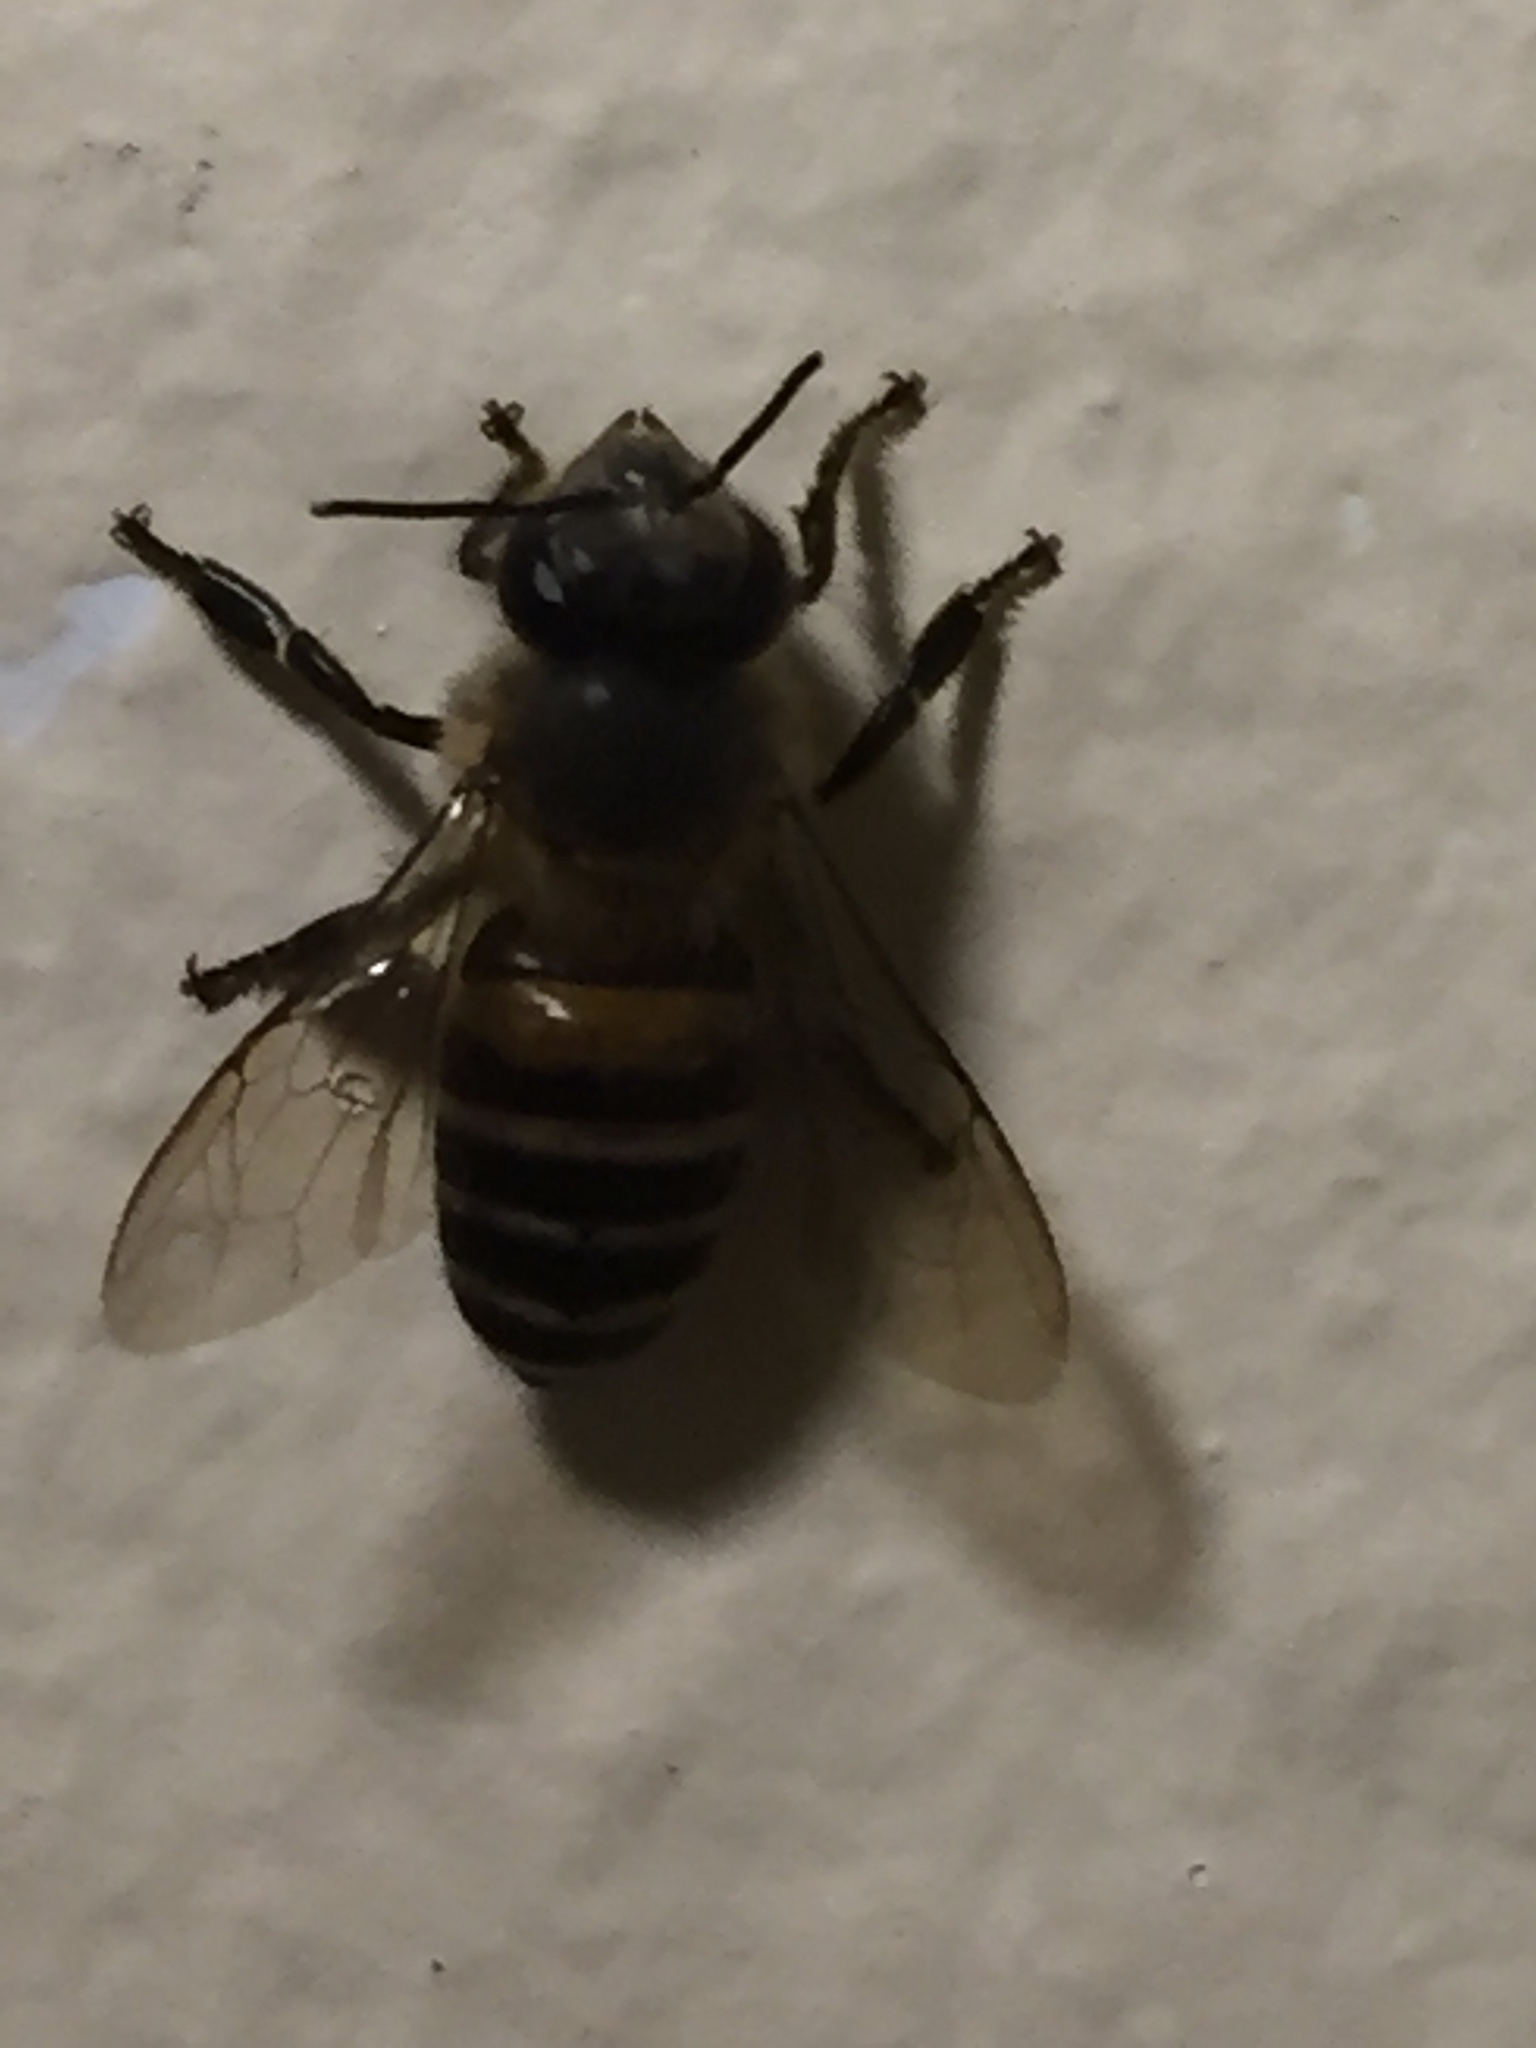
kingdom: Animalia
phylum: Arthropoda
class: Insecta
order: Hymenoptera
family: Apidae
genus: Apis
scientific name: Apis cerana
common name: Honey bee
